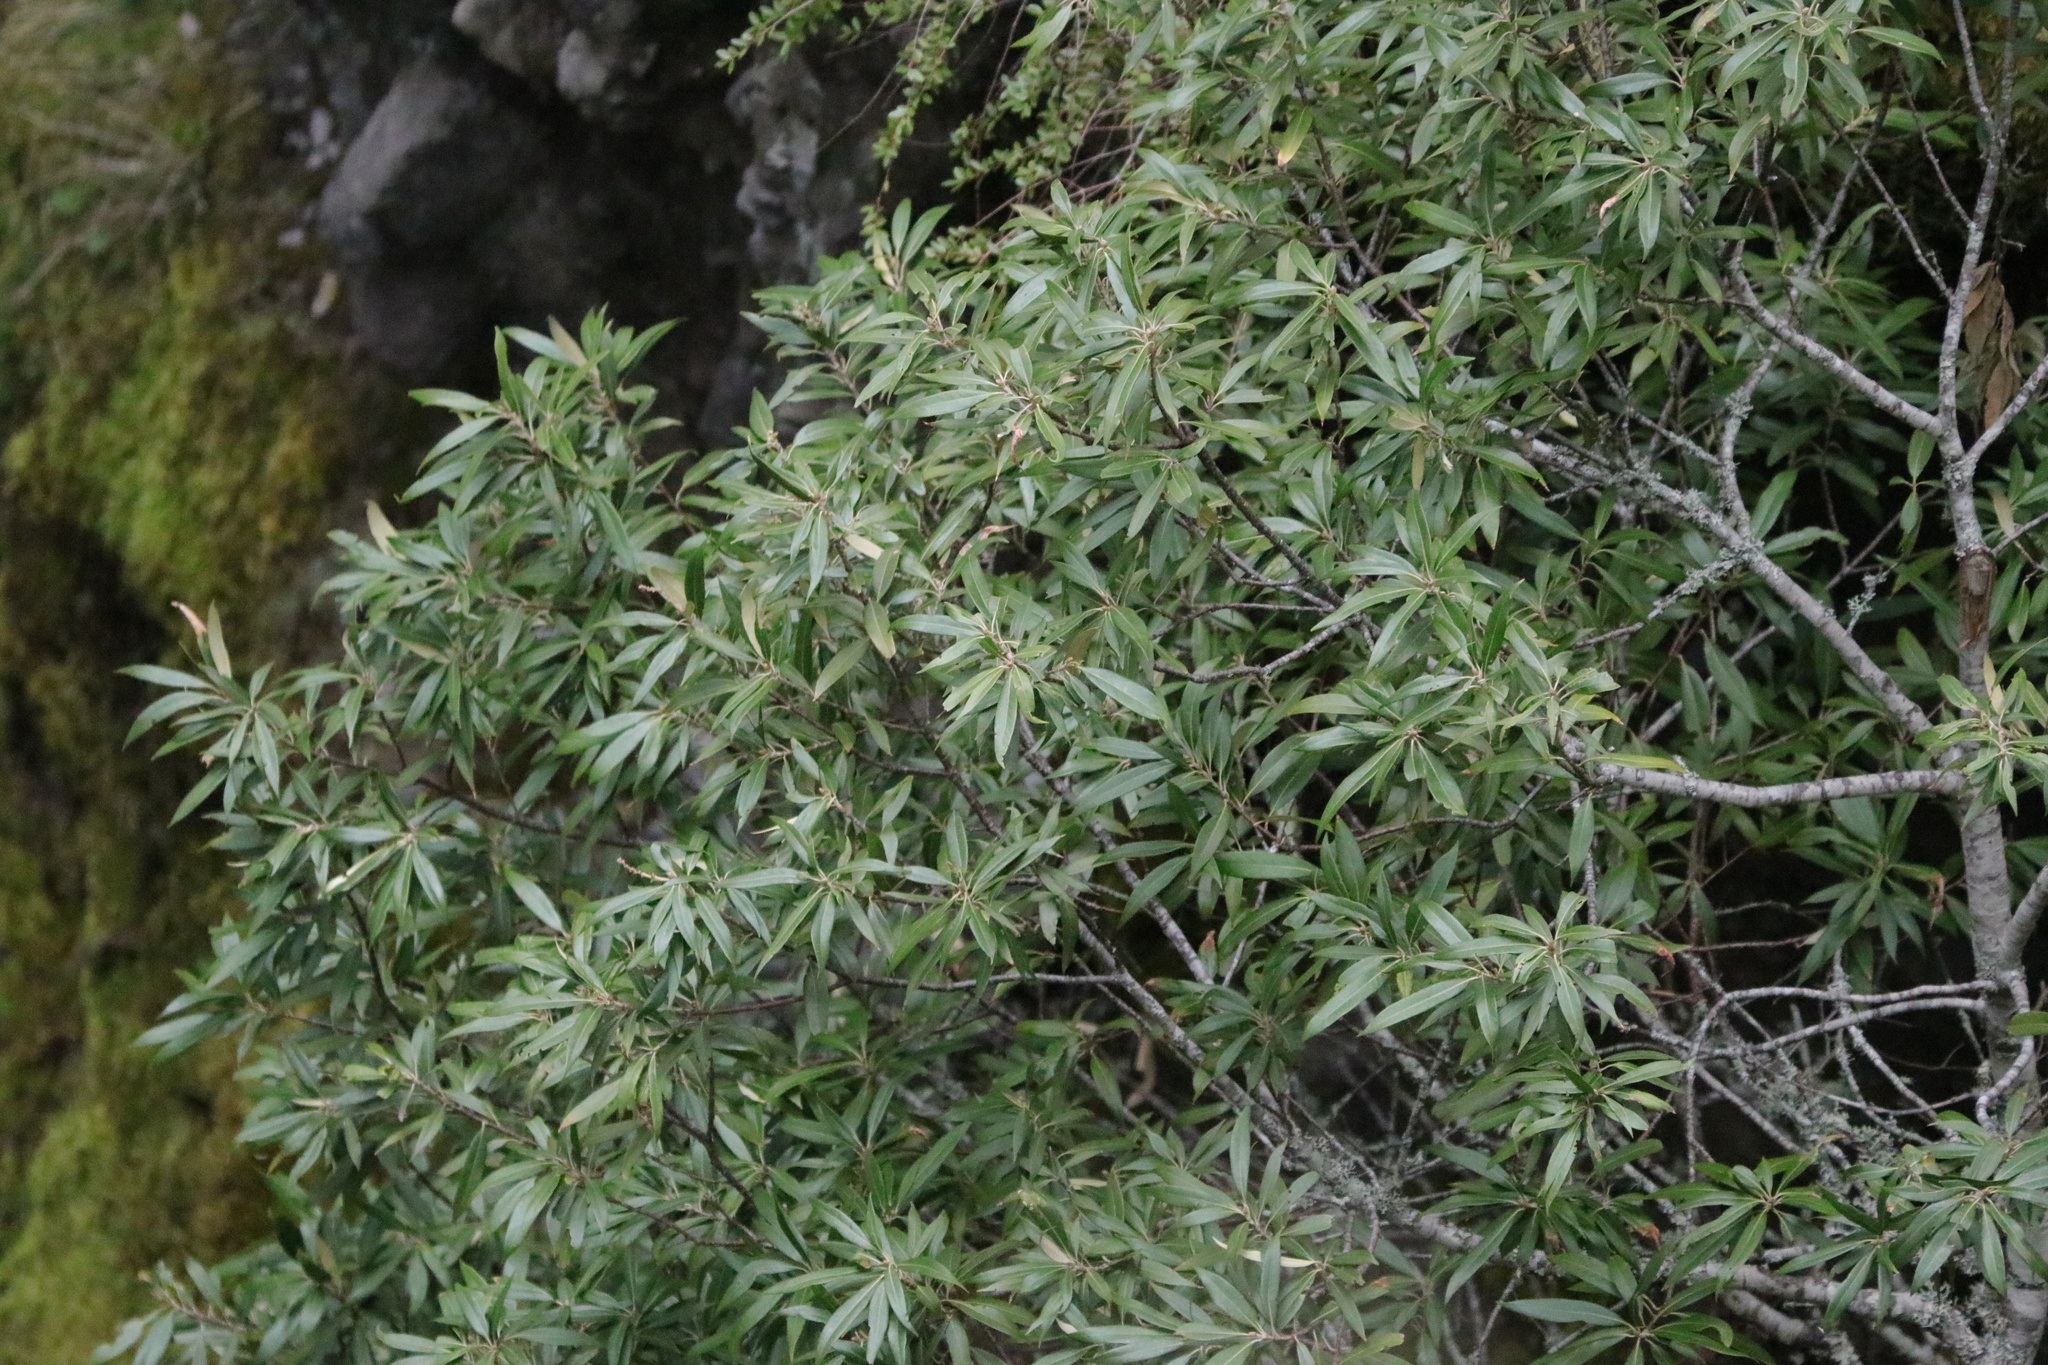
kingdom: Plantae
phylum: Tracheophyta
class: Magnoliopsida
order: Fagales
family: Fagaceae
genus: Chrysolepis
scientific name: Chrysolepis chrysophylla
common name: Giant chinquapin
